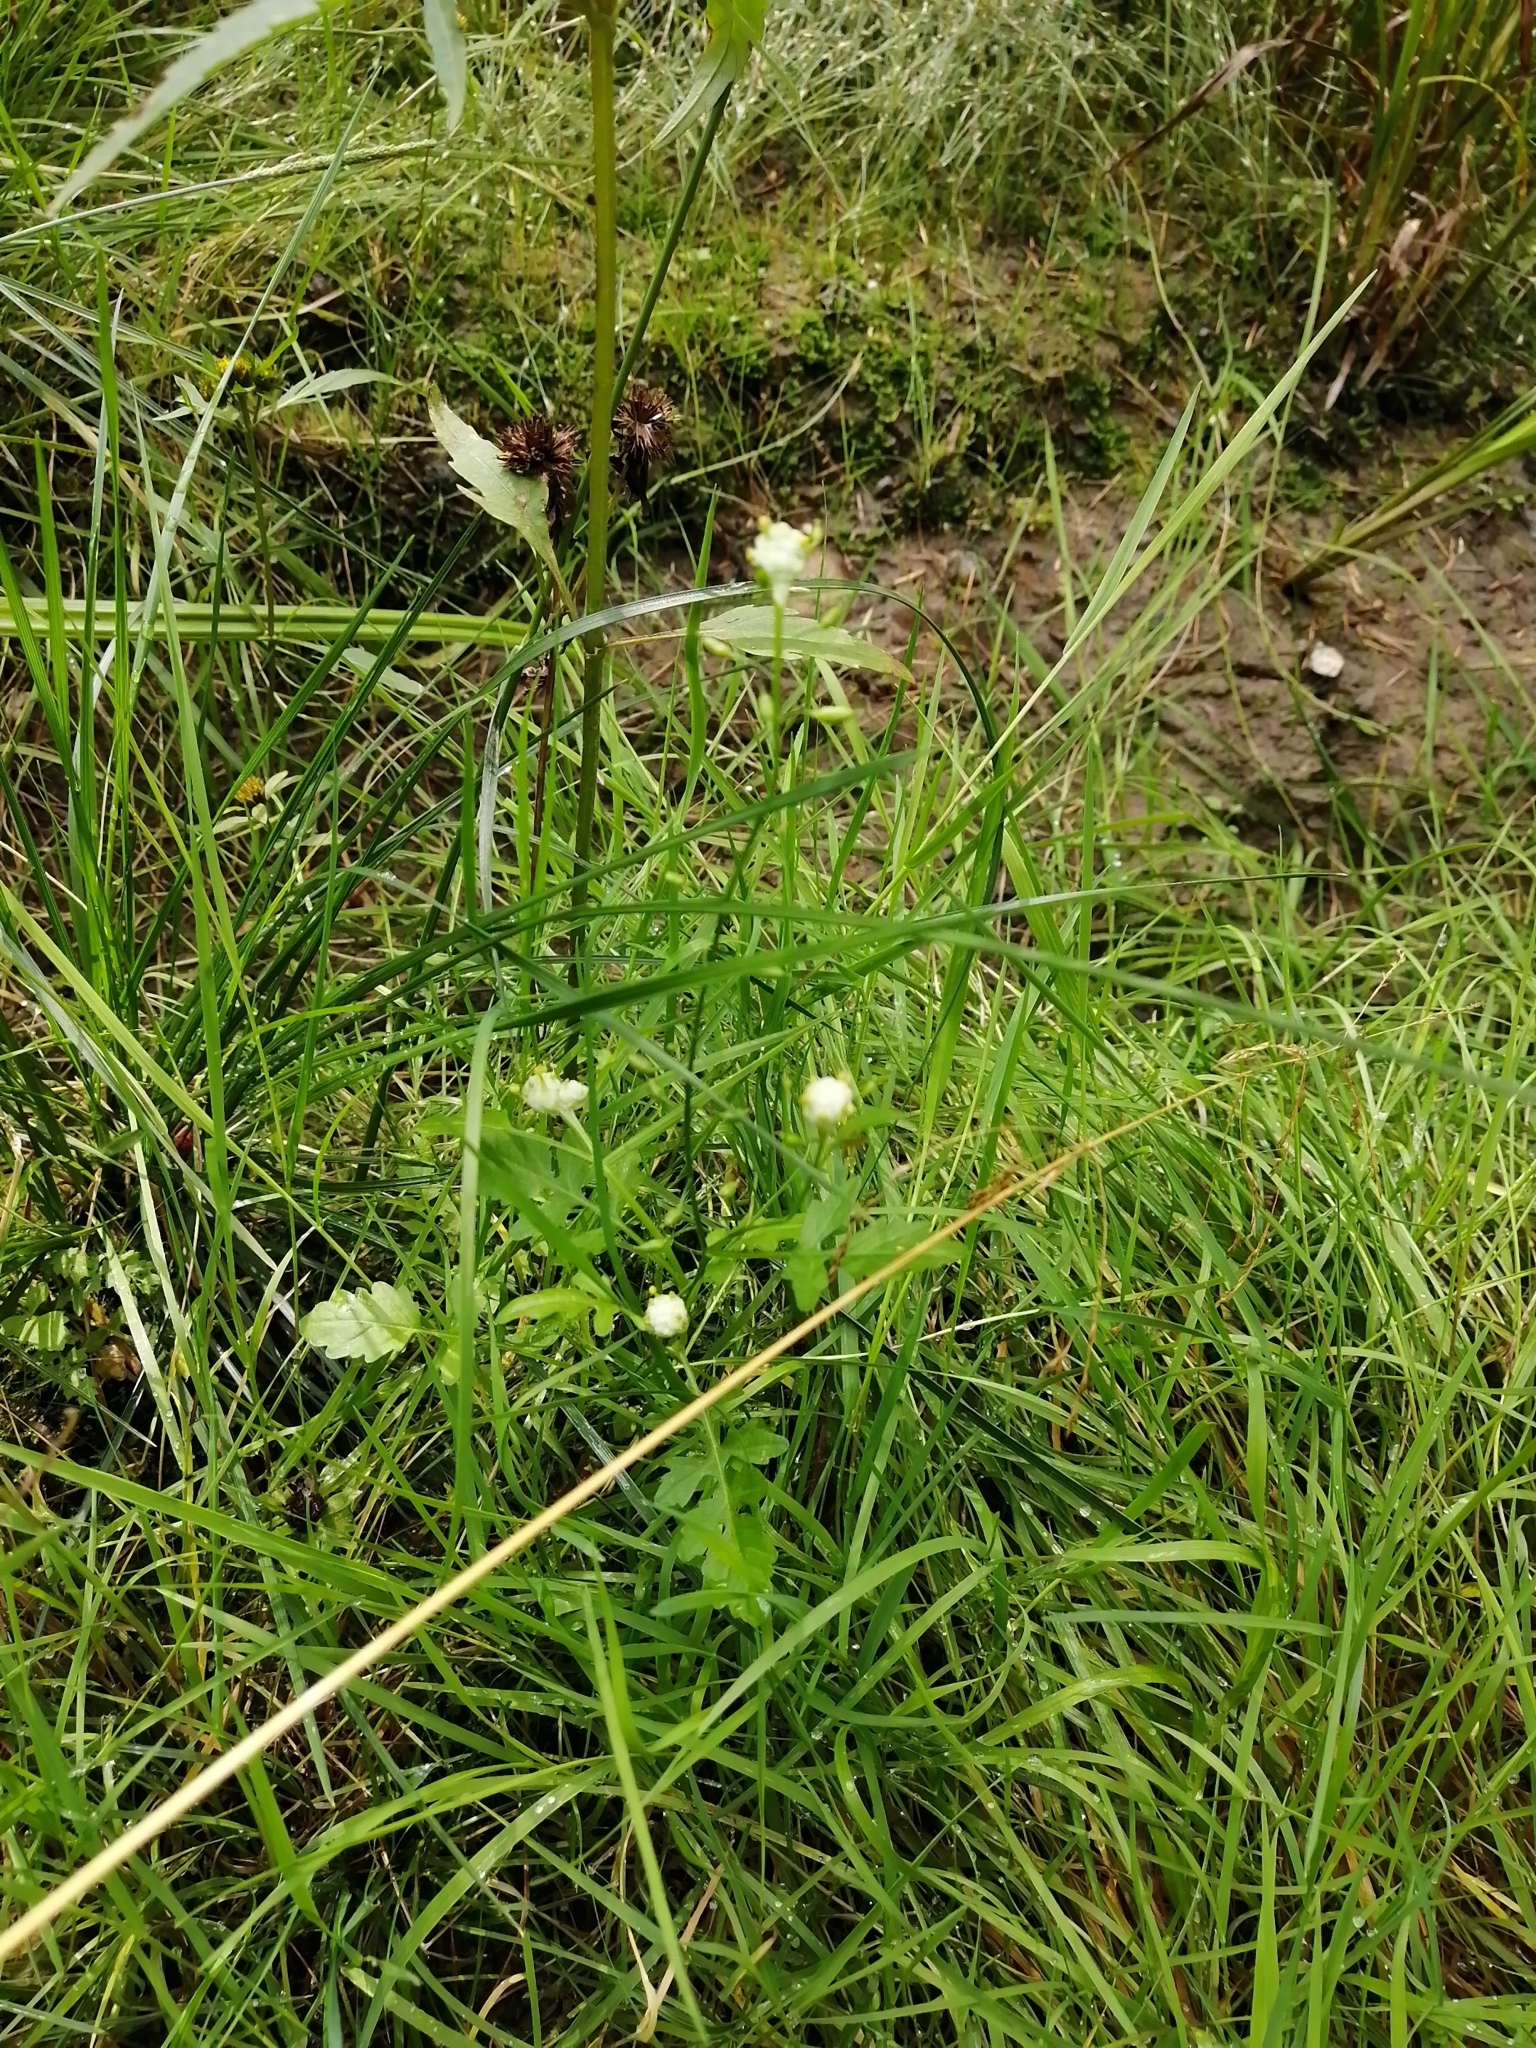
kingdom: Plantae
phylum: Tracheophyta
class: Magnoliopsida
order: Brassicales
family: Brassicaceae
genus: Rorippa
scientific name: Rorippa palustris
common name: Marsh yellow-cress
